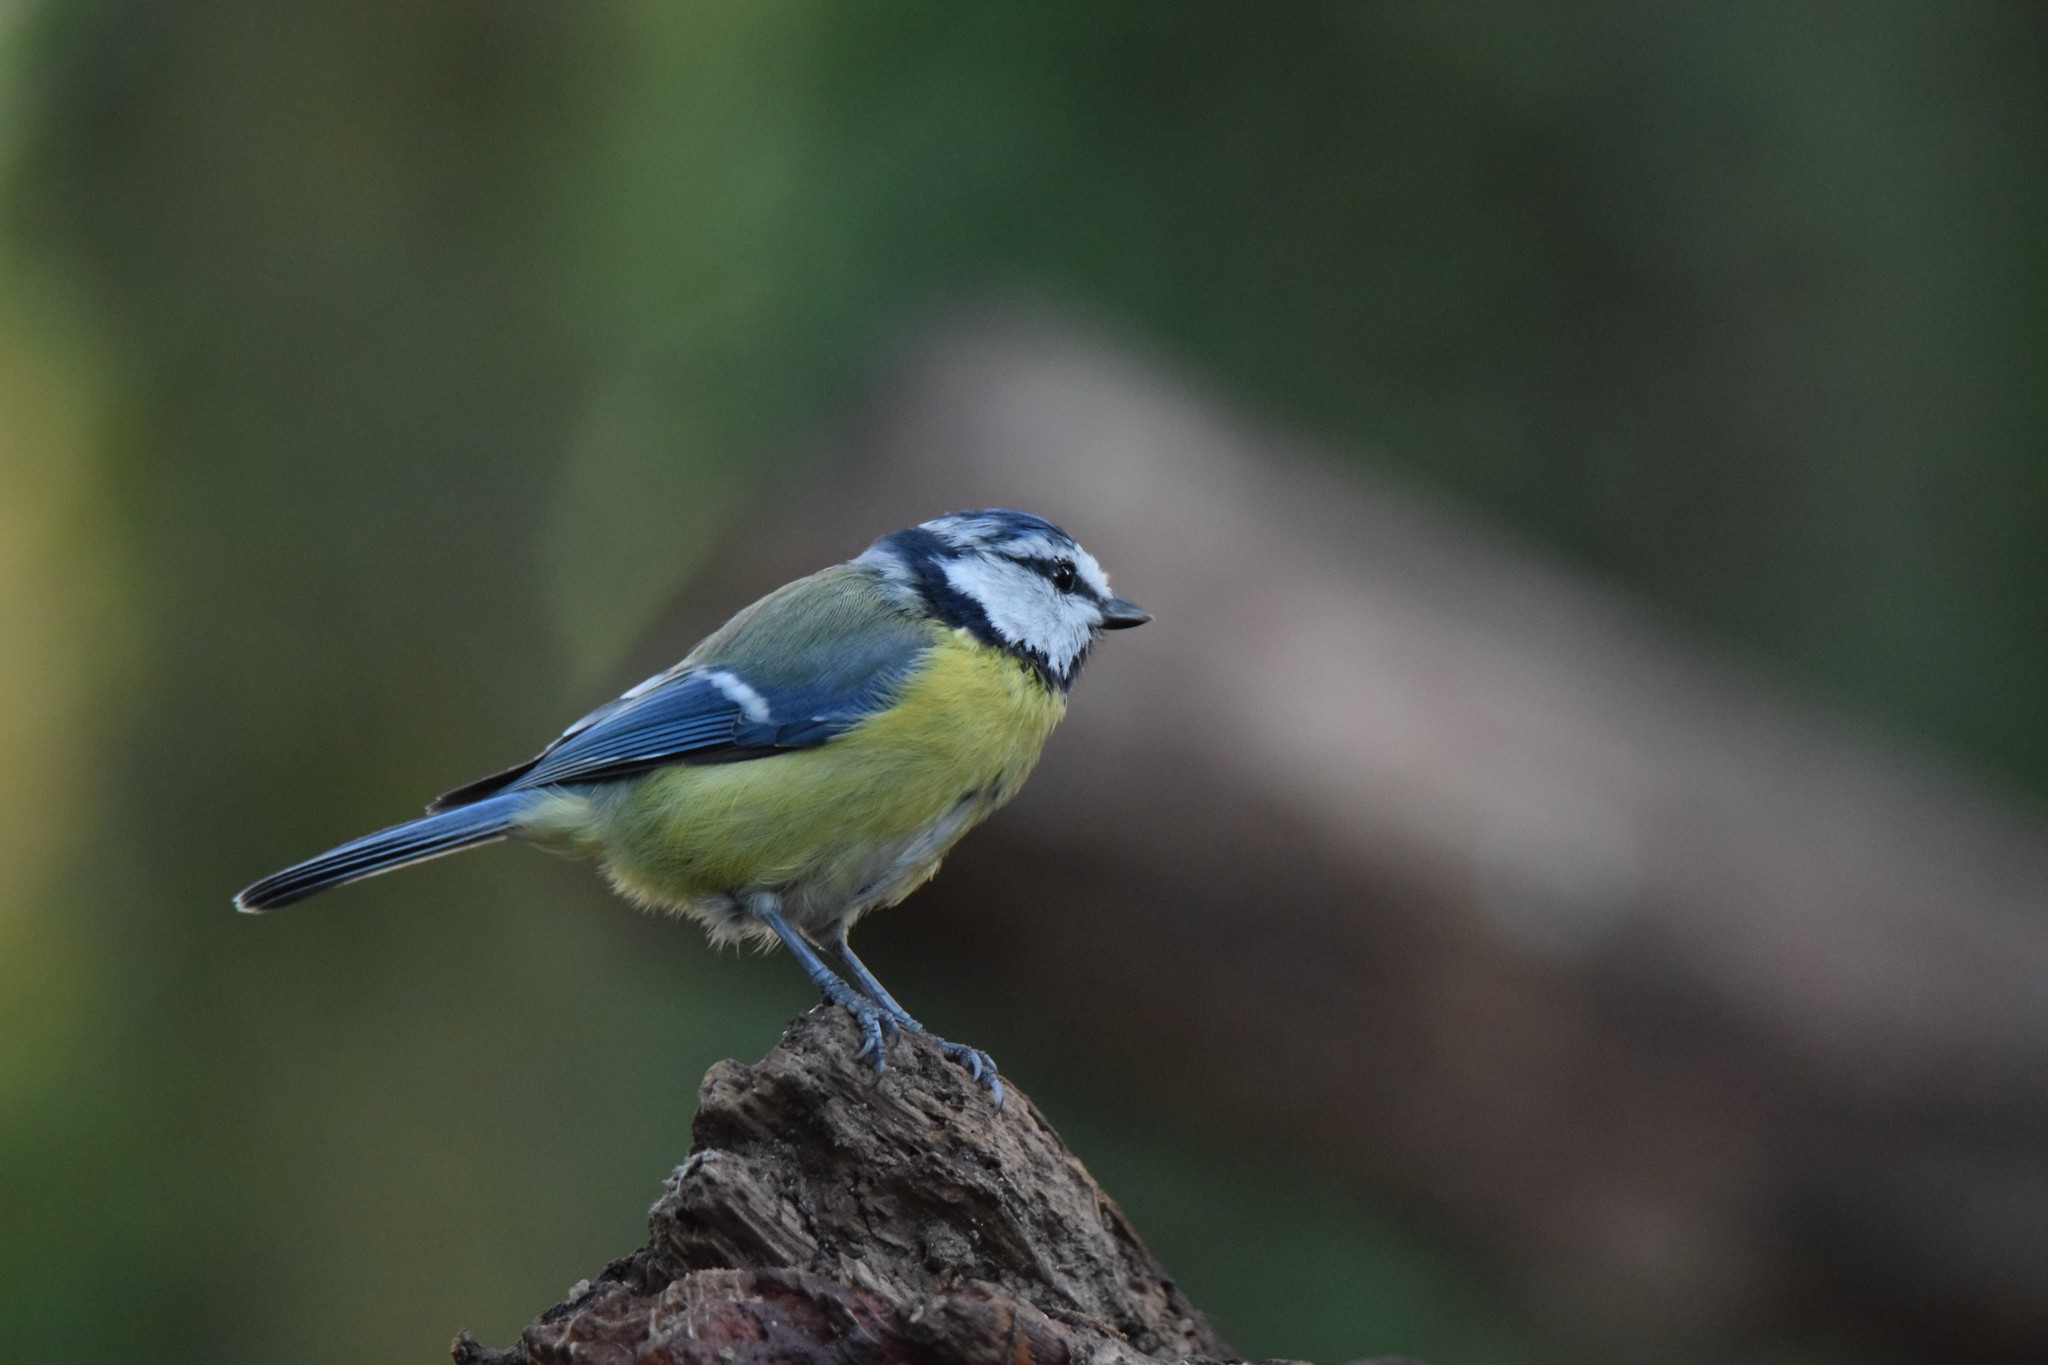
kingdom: Animalia
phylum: Chordata
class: Aves
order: Passeriformes
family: Paridae
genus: Cyanistes
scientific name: Cyanistes caeruleus
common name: Eurasian blue tit
